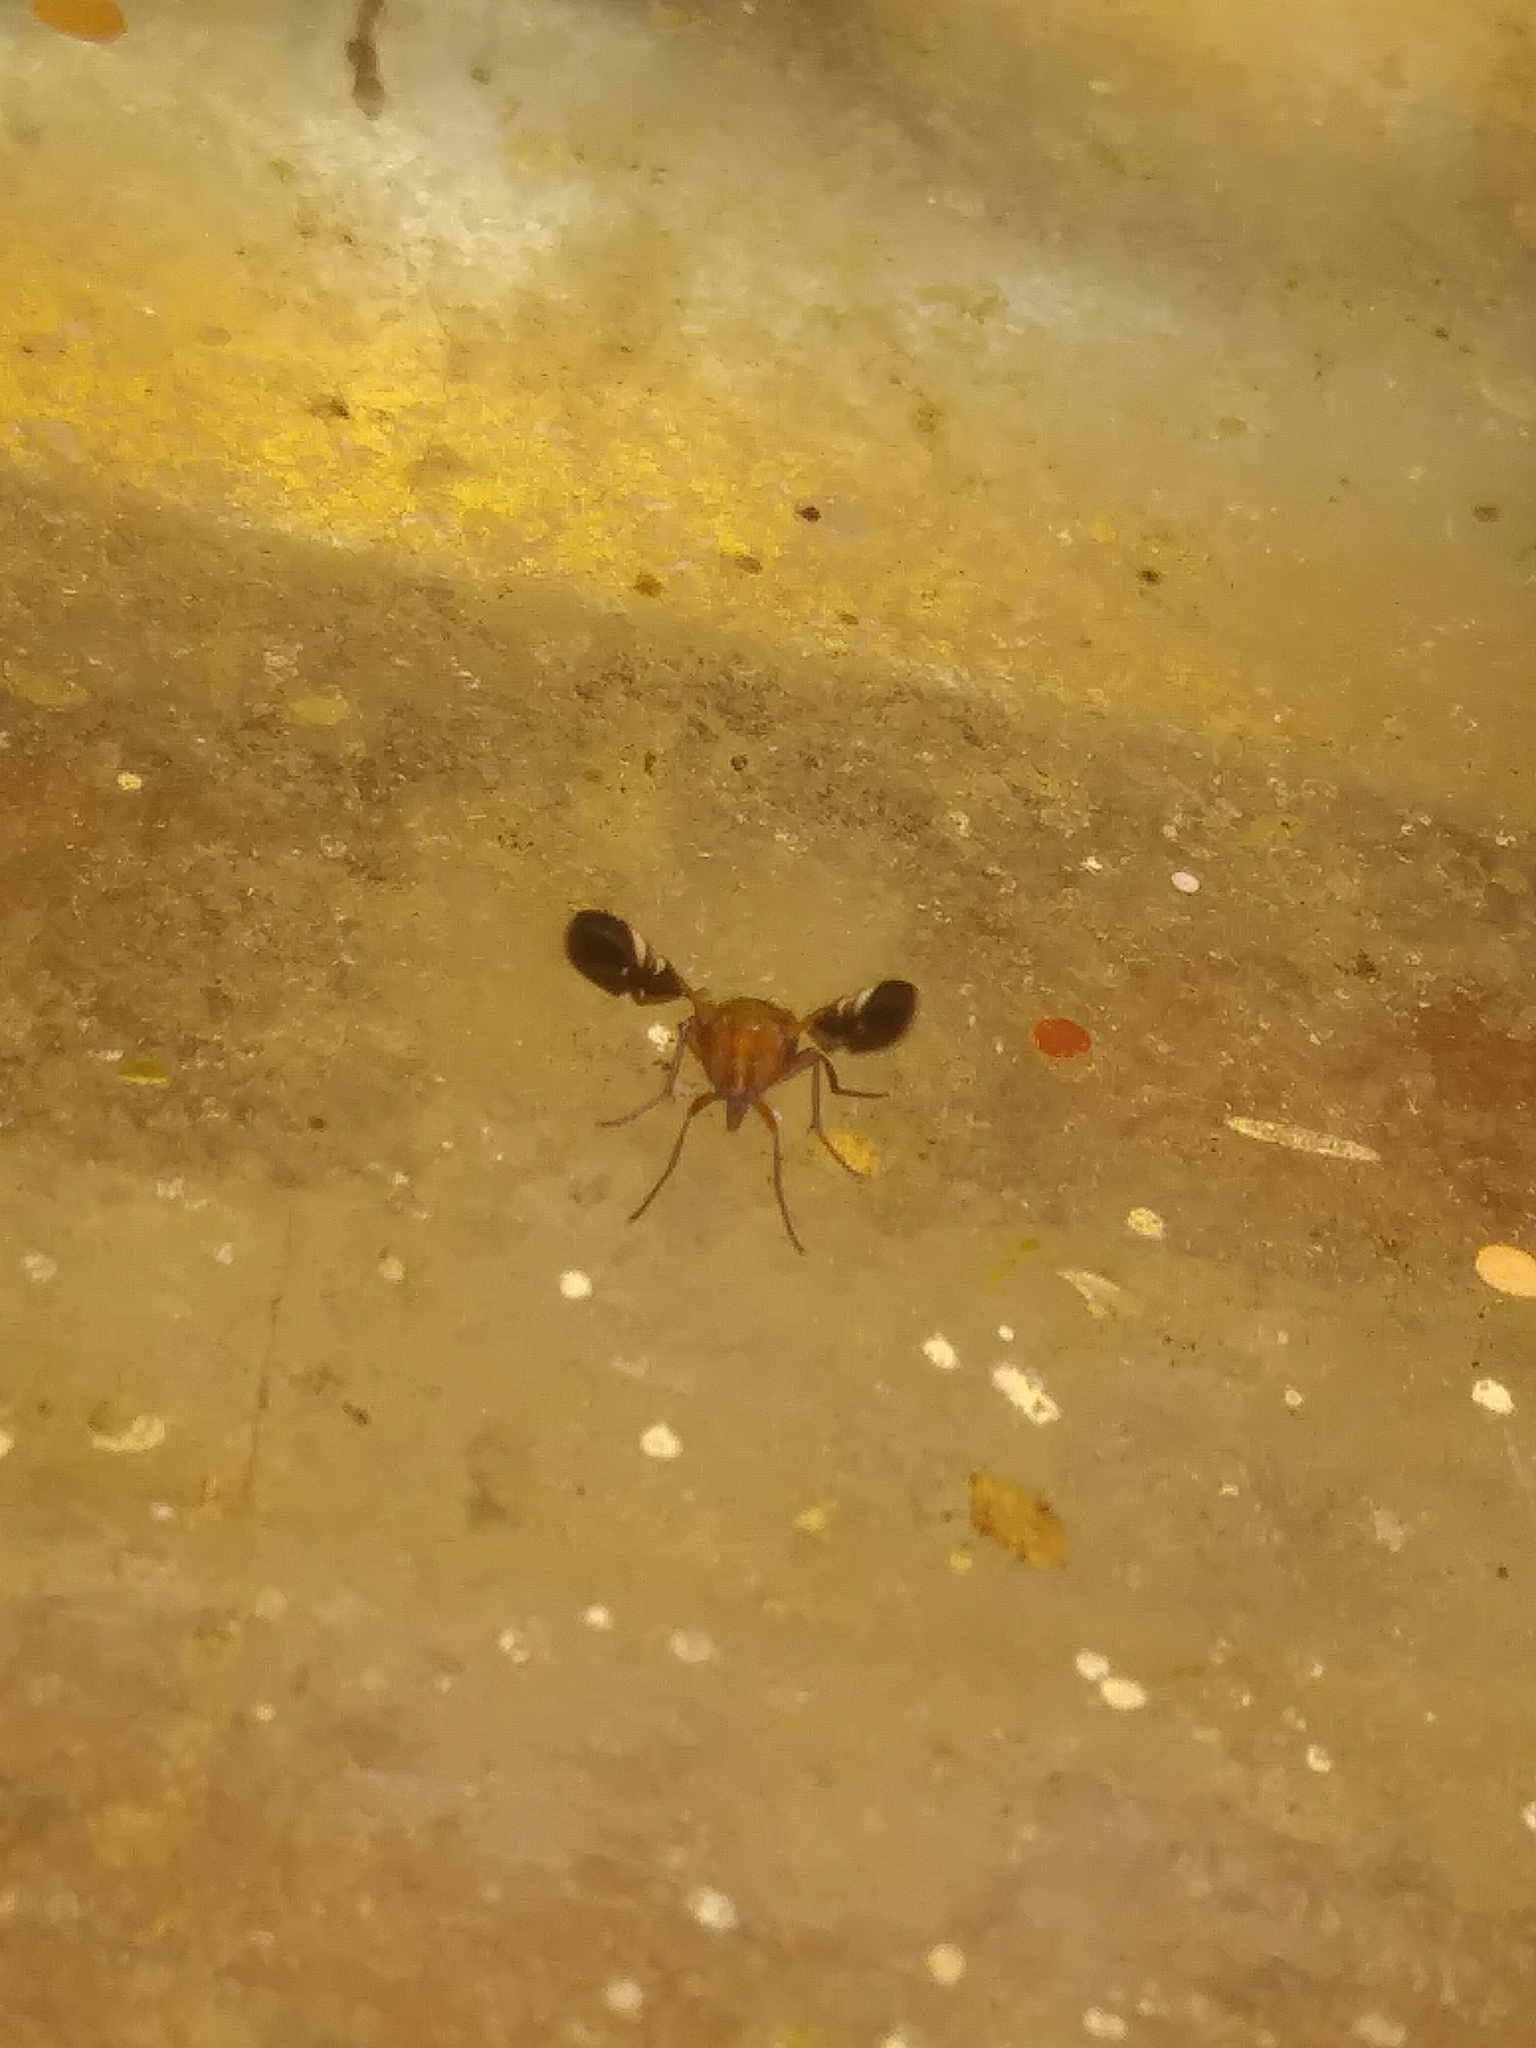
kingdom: Animalia
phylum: Arthropoda
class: Insecta
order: Diptera
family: Ulidiidae
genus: Delphinia
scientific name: Delphinia picta
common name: Common picture-winged fly
